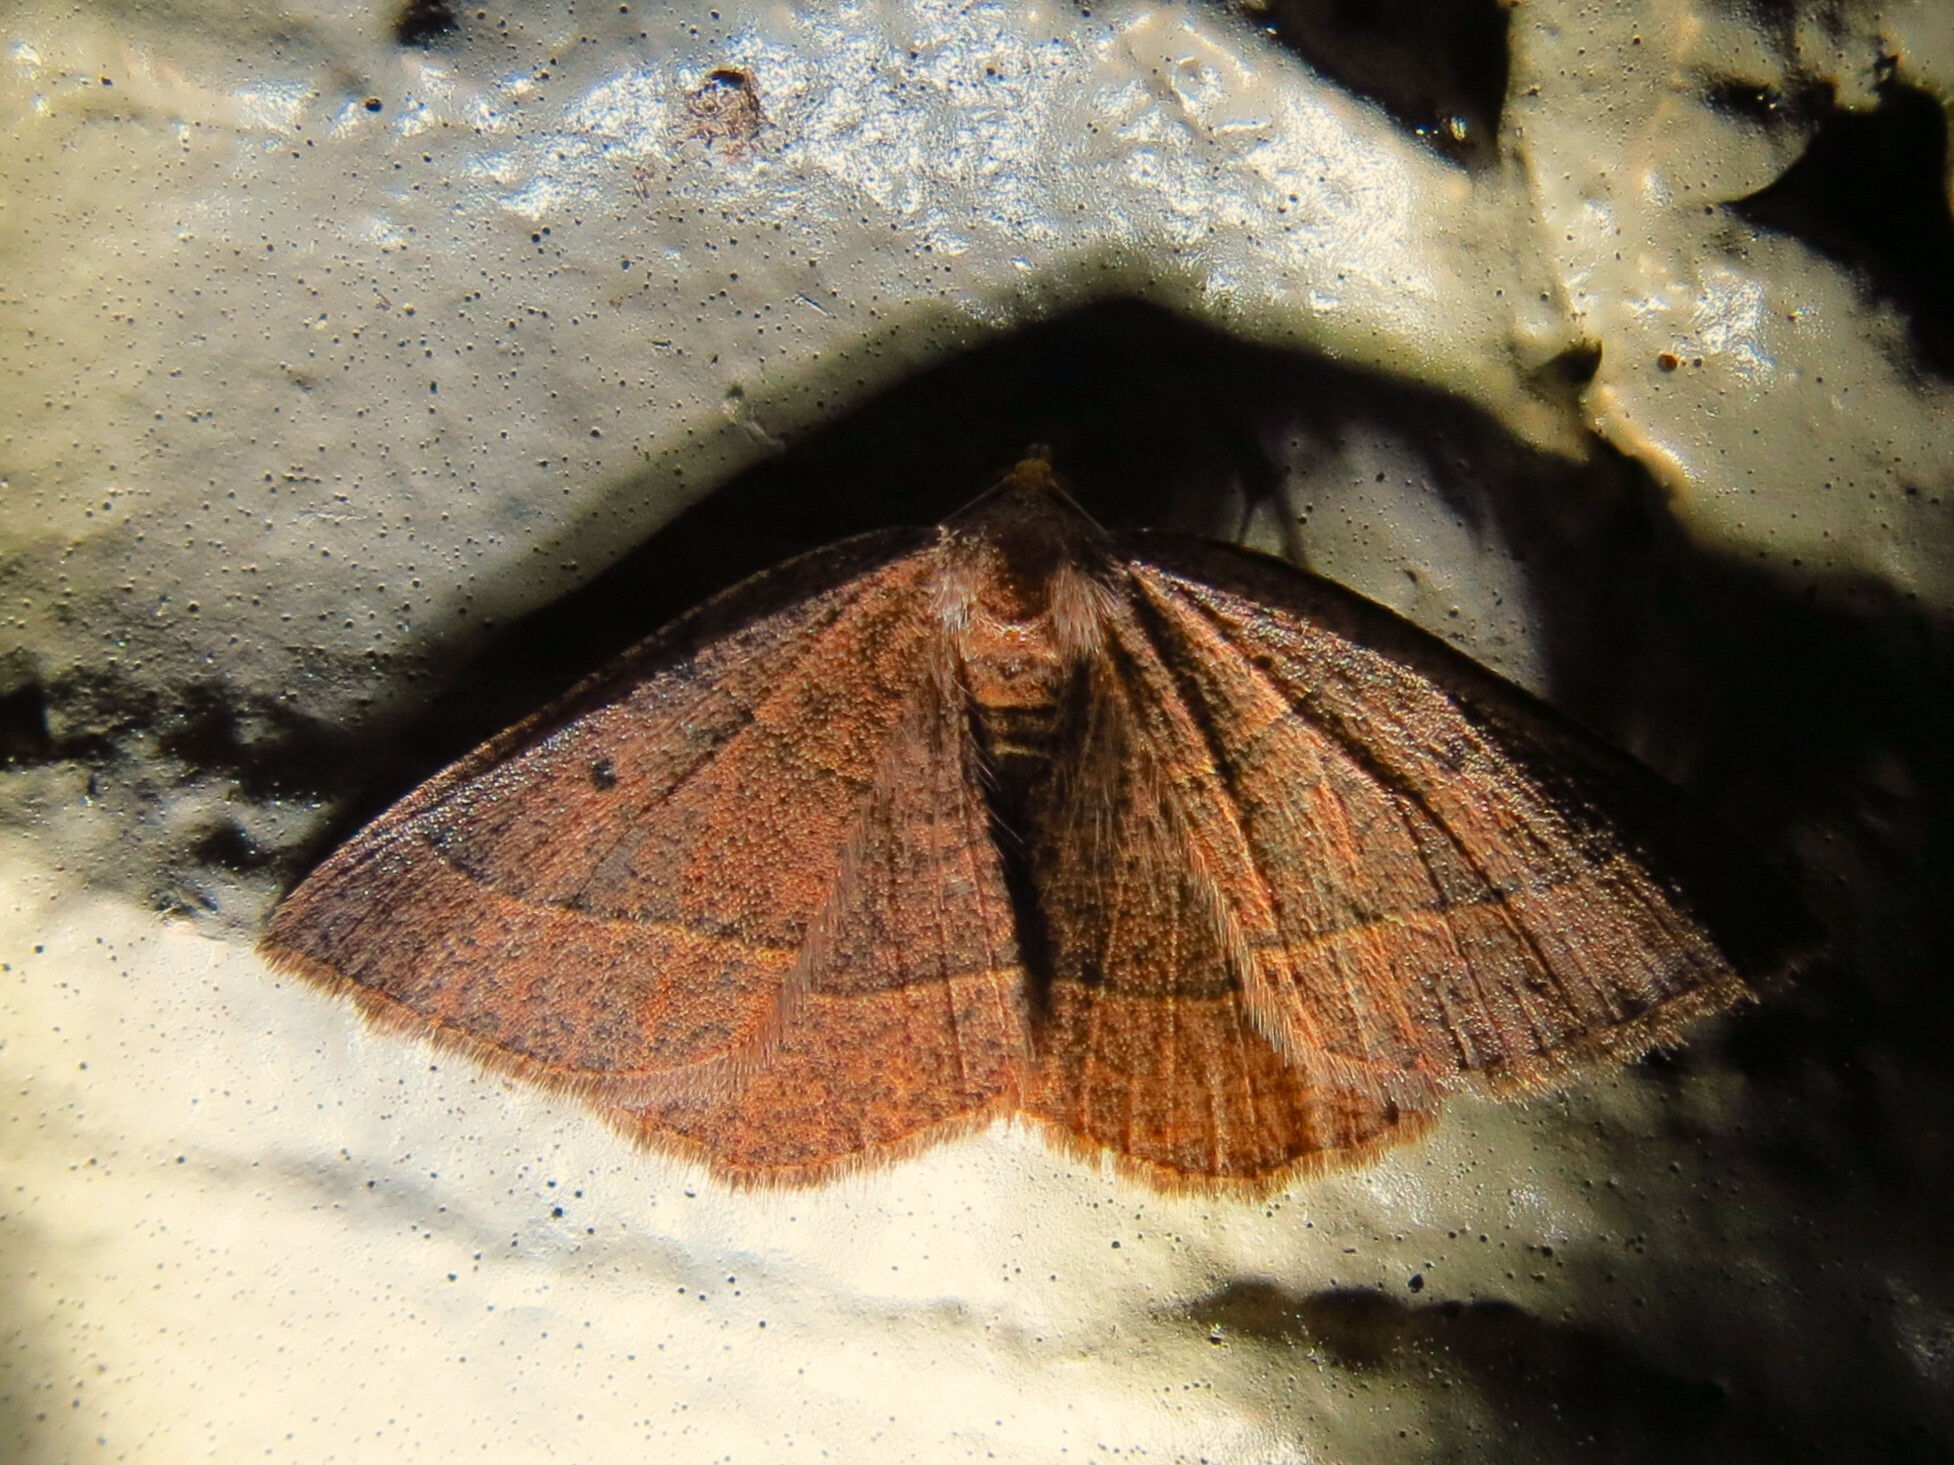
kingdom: Animalia
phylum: Arthropoda
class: Insecta
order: Lepidoptera
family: Geometridae
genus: Episemasia
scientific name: Episemasia cervinaria
